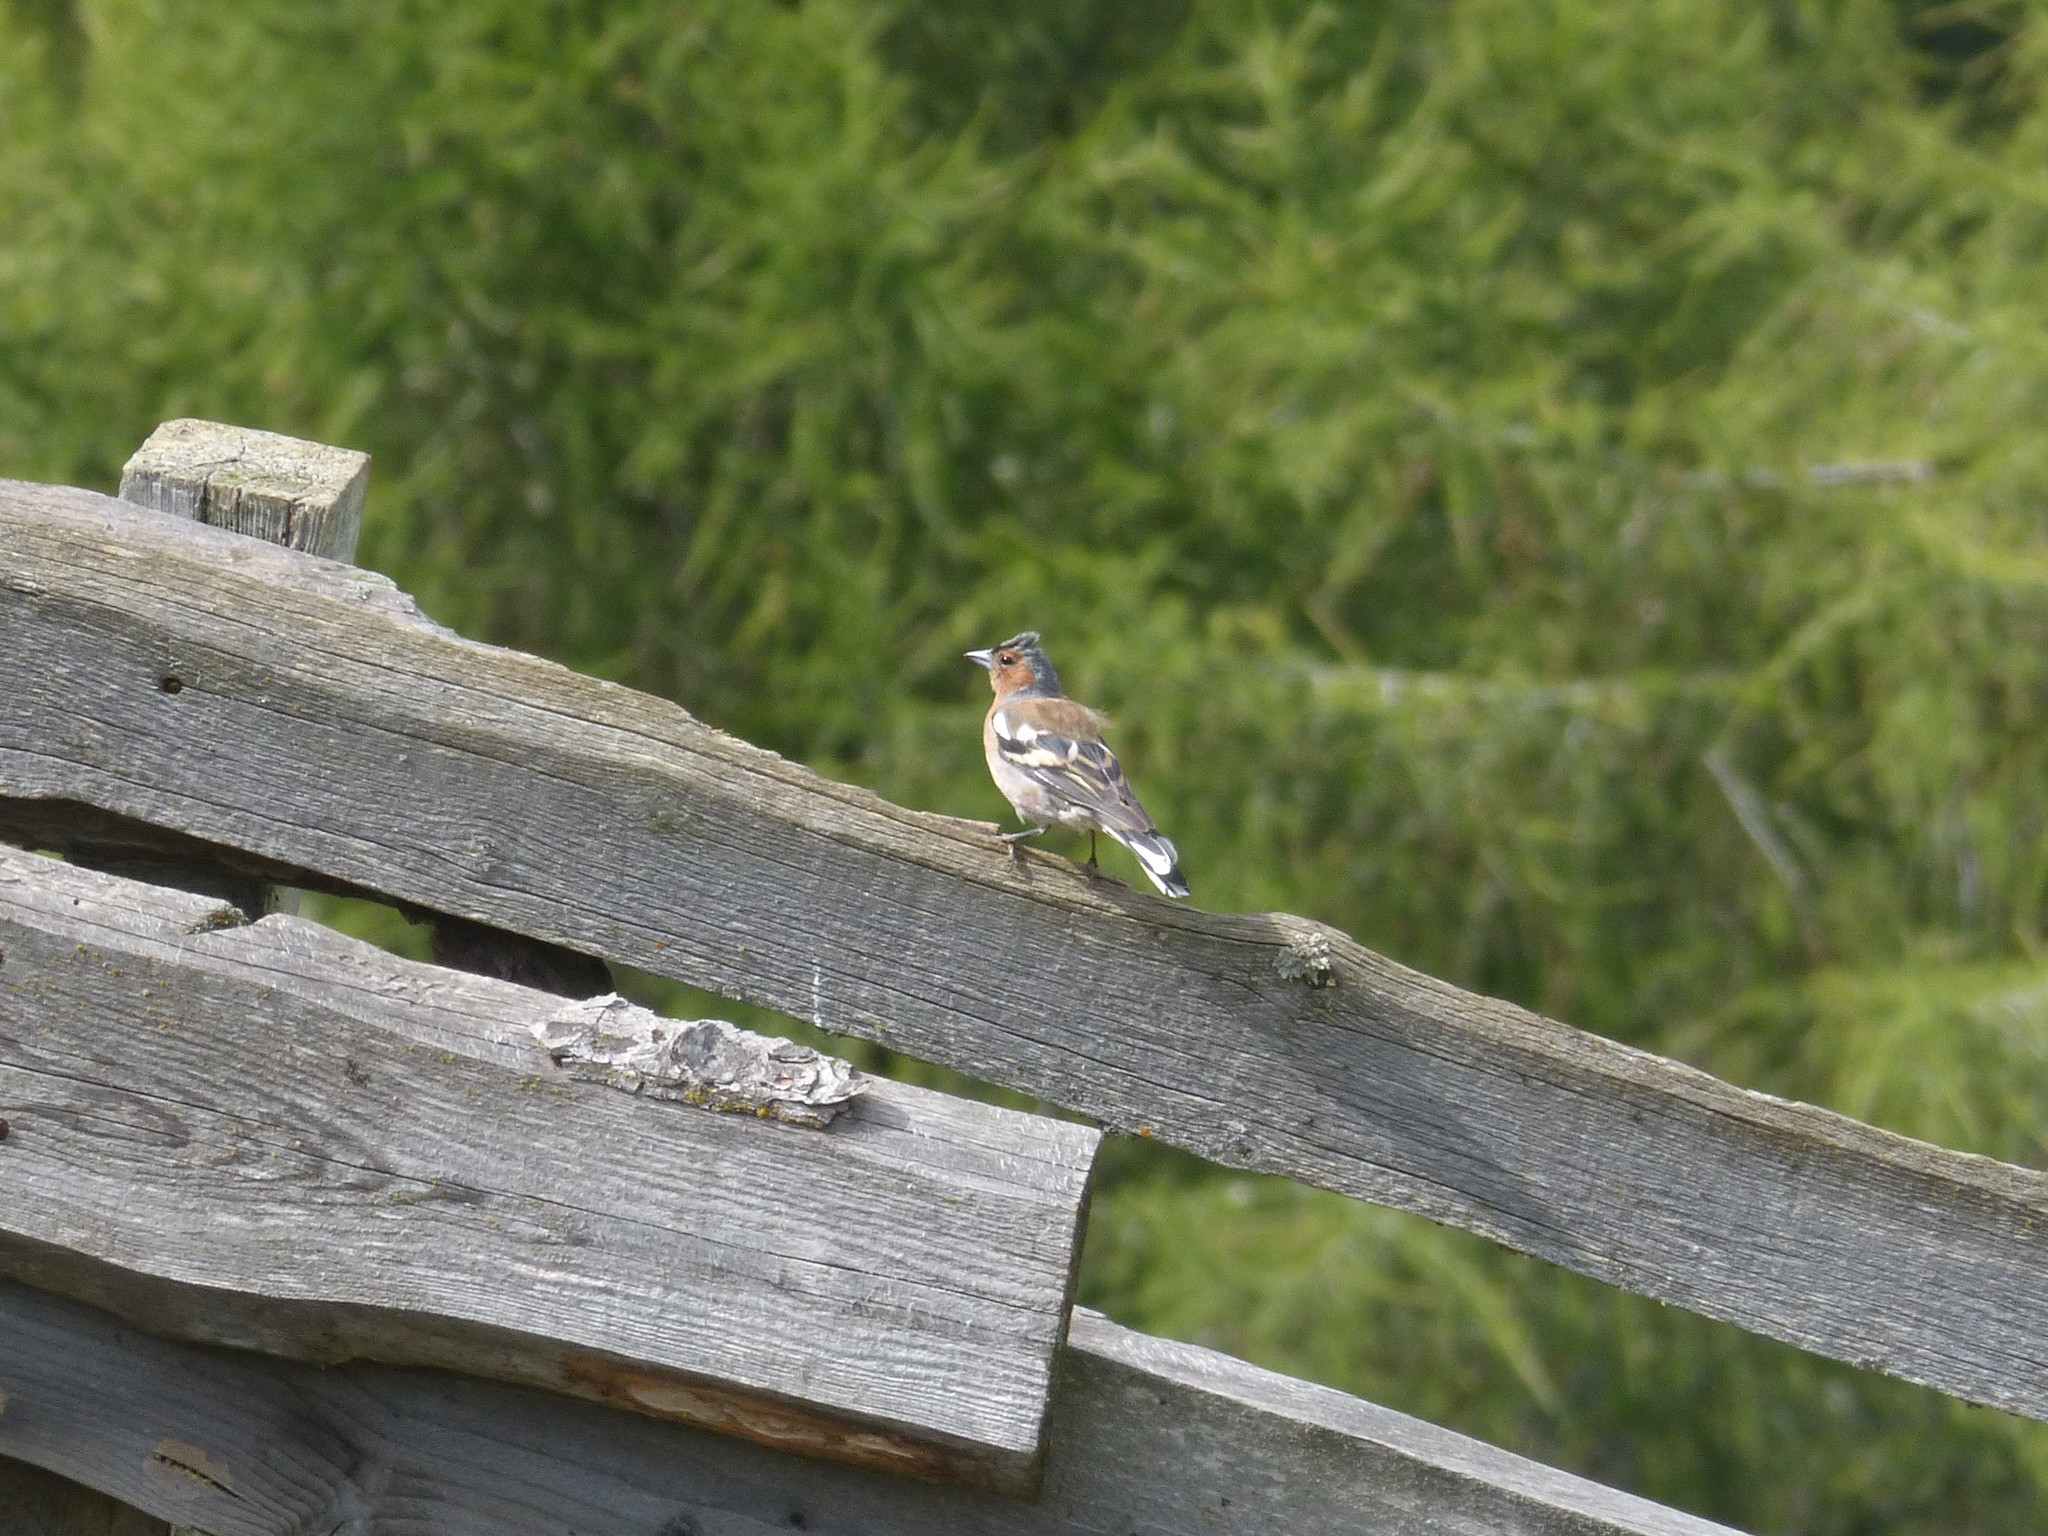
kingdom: Animalia
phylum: Chordata
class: Aves
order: Passeriformes
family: Fringillidae
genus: Fringilla
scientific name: Fringilla coelebs
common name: Common chaffinch
